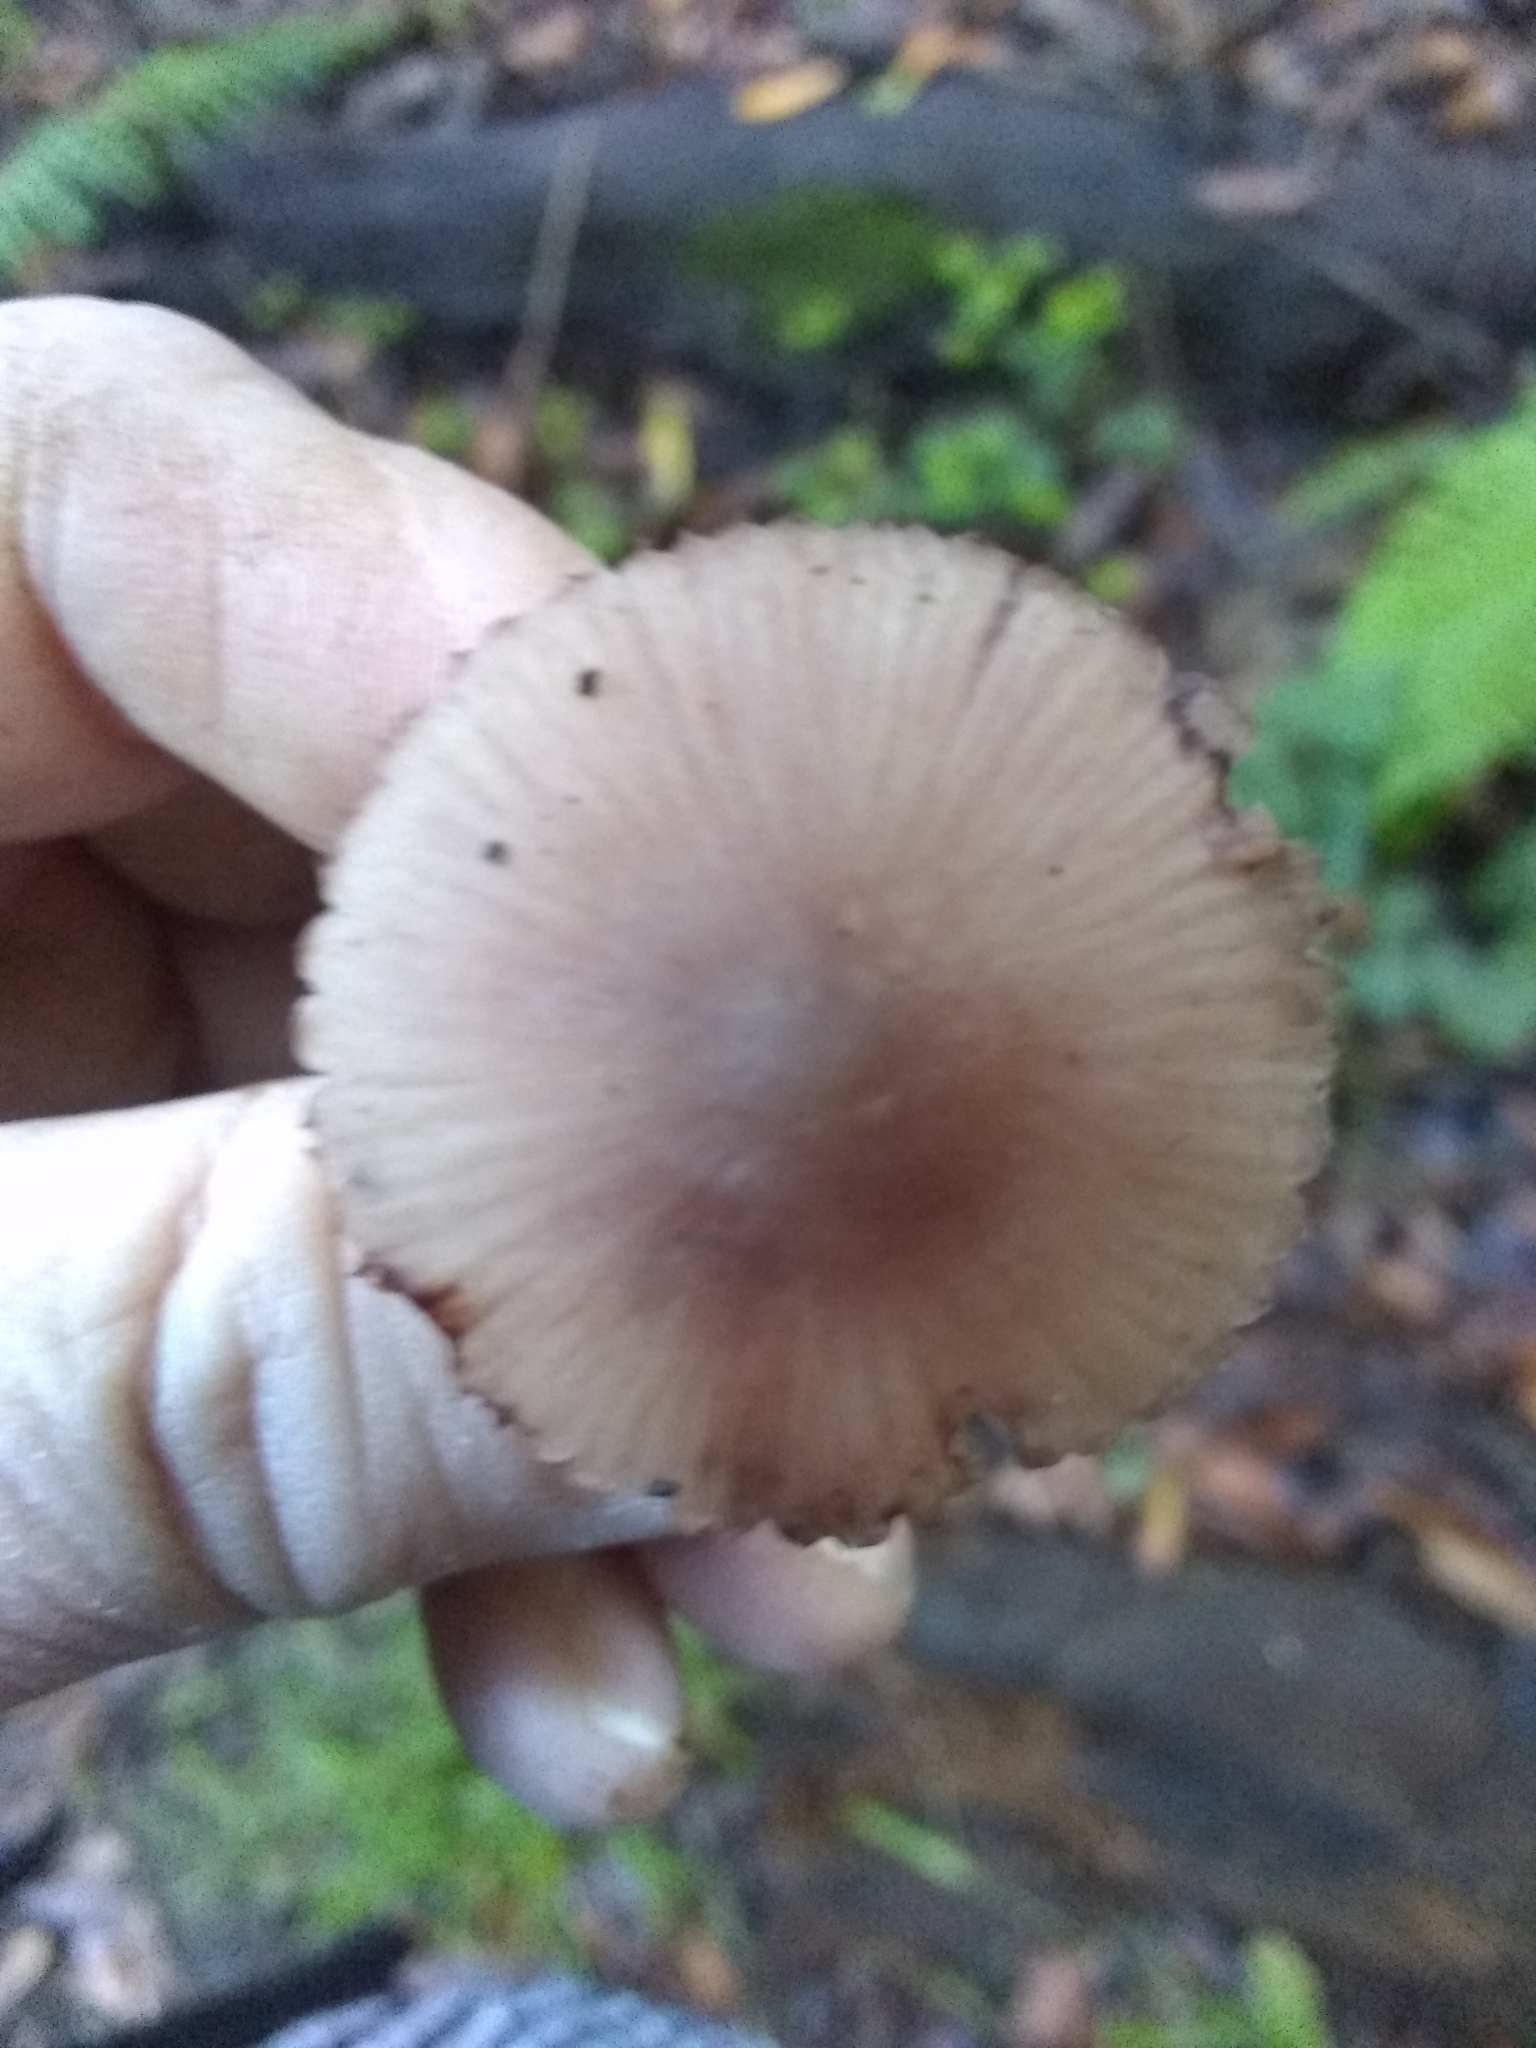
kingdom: Fungi
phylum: Basidiomycota
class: Agaricomycetes
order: Agaricales
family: Mycenaceae
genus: Mycena
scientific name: Mycena haematopus
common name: Burgundydrop bonnet
